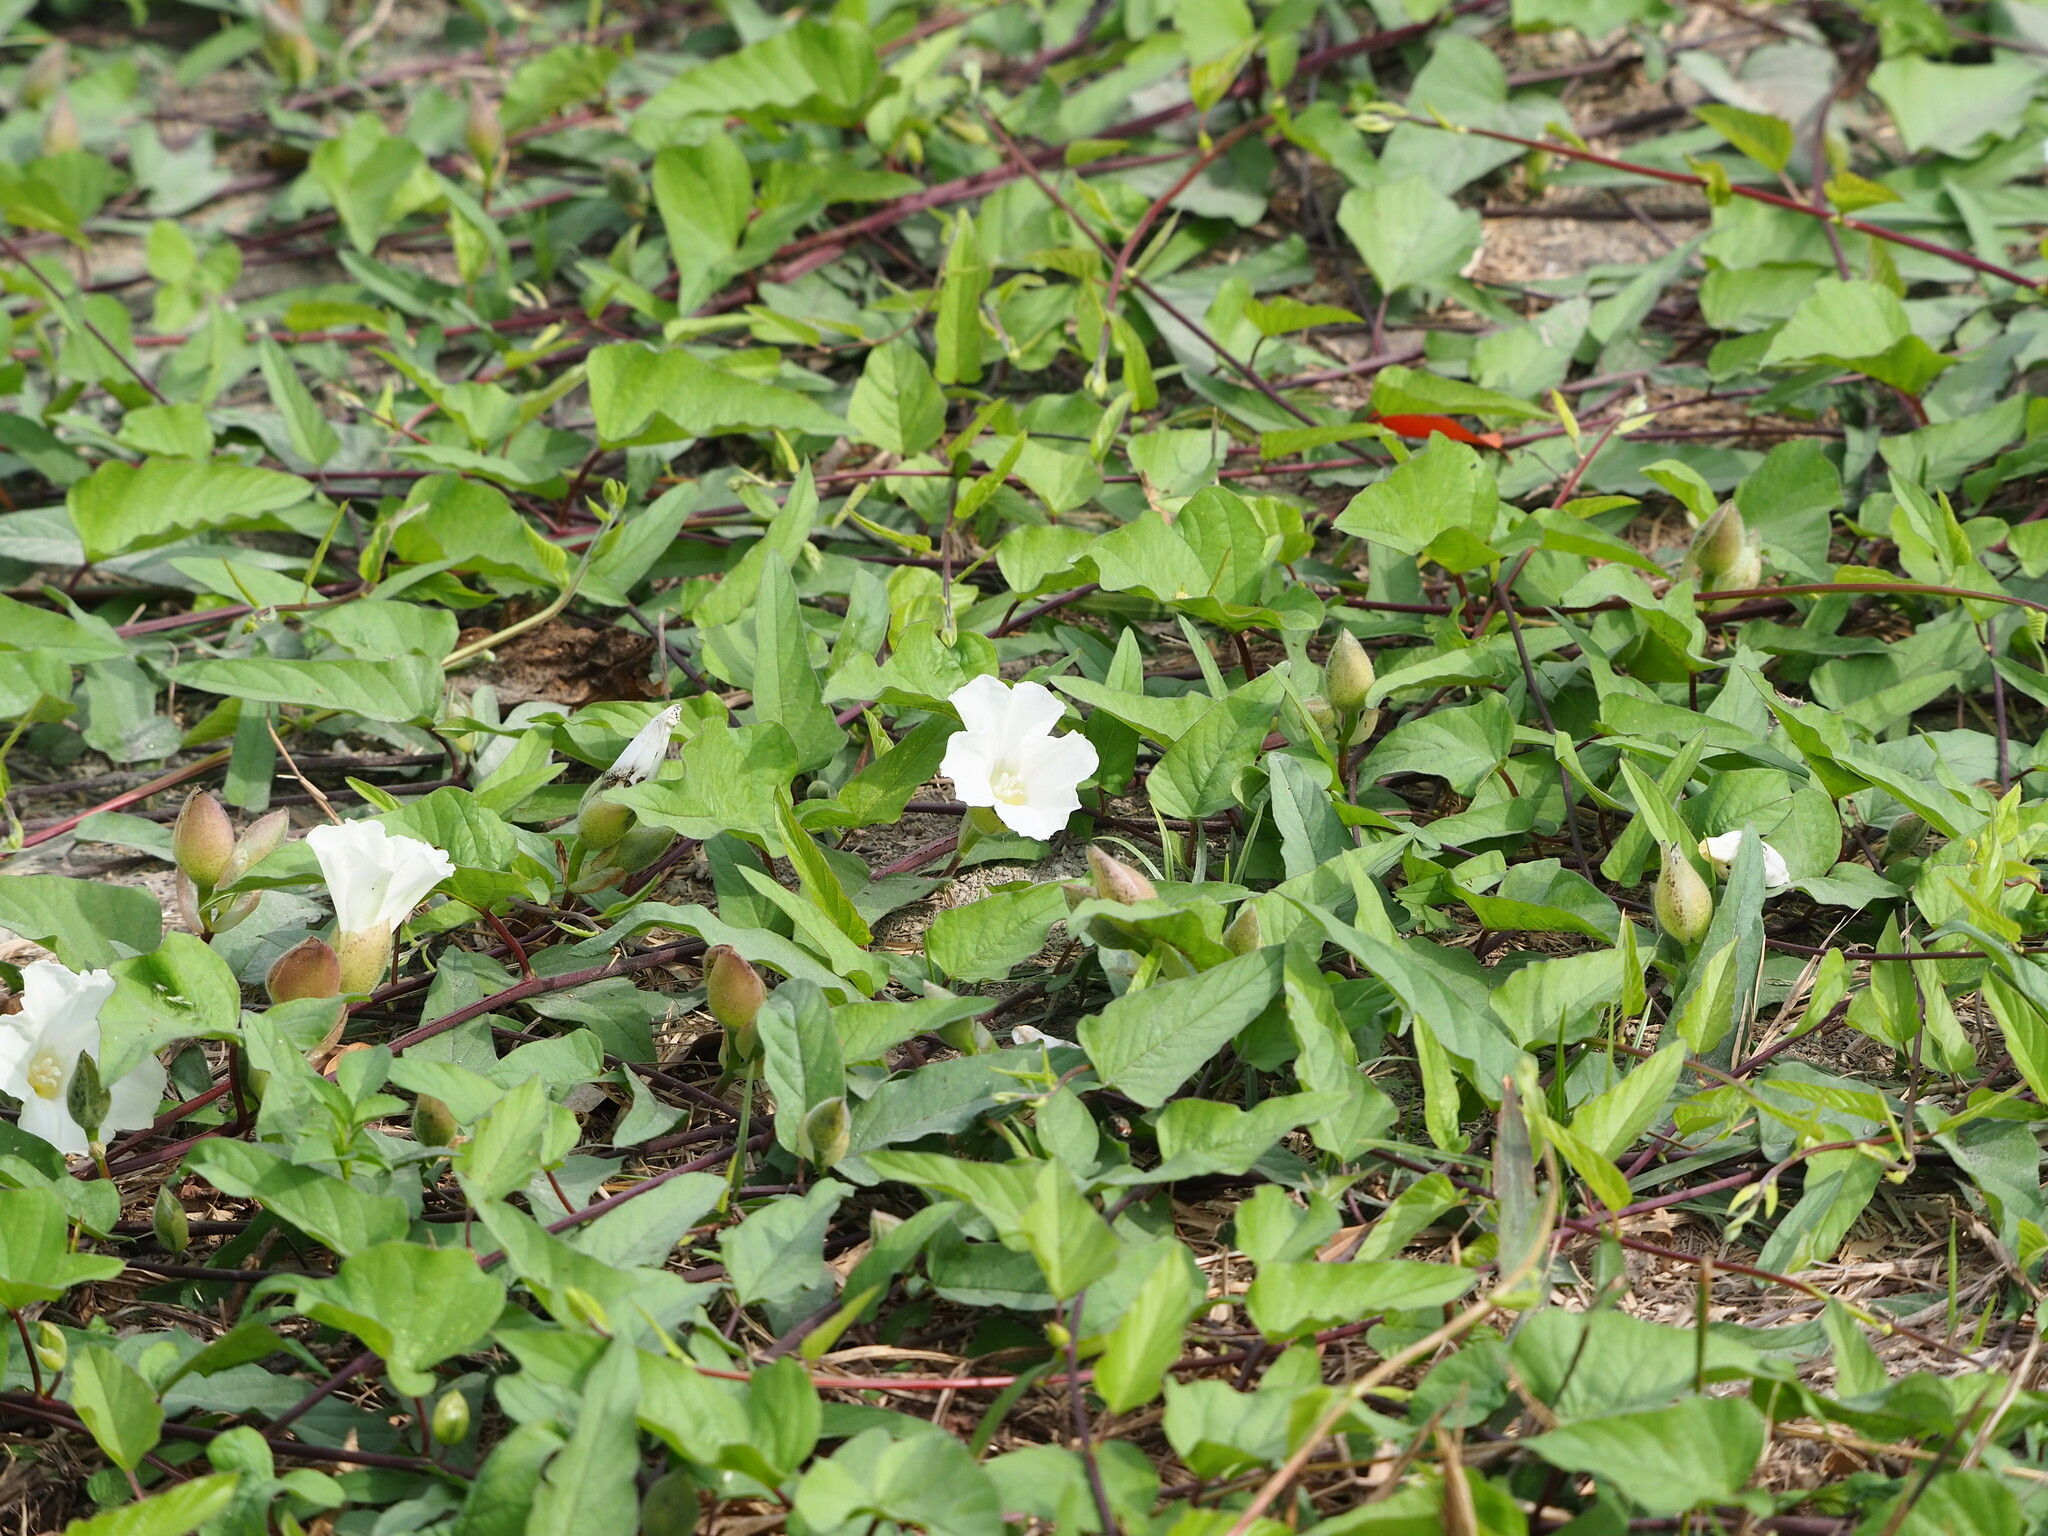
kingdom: Plantae
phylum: Tracheophyta
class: Magnoliopsida
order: Solanales
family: Convolvulaceae
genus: Operculina
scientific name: Operculina turpethum
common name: Transparent wood-rose
